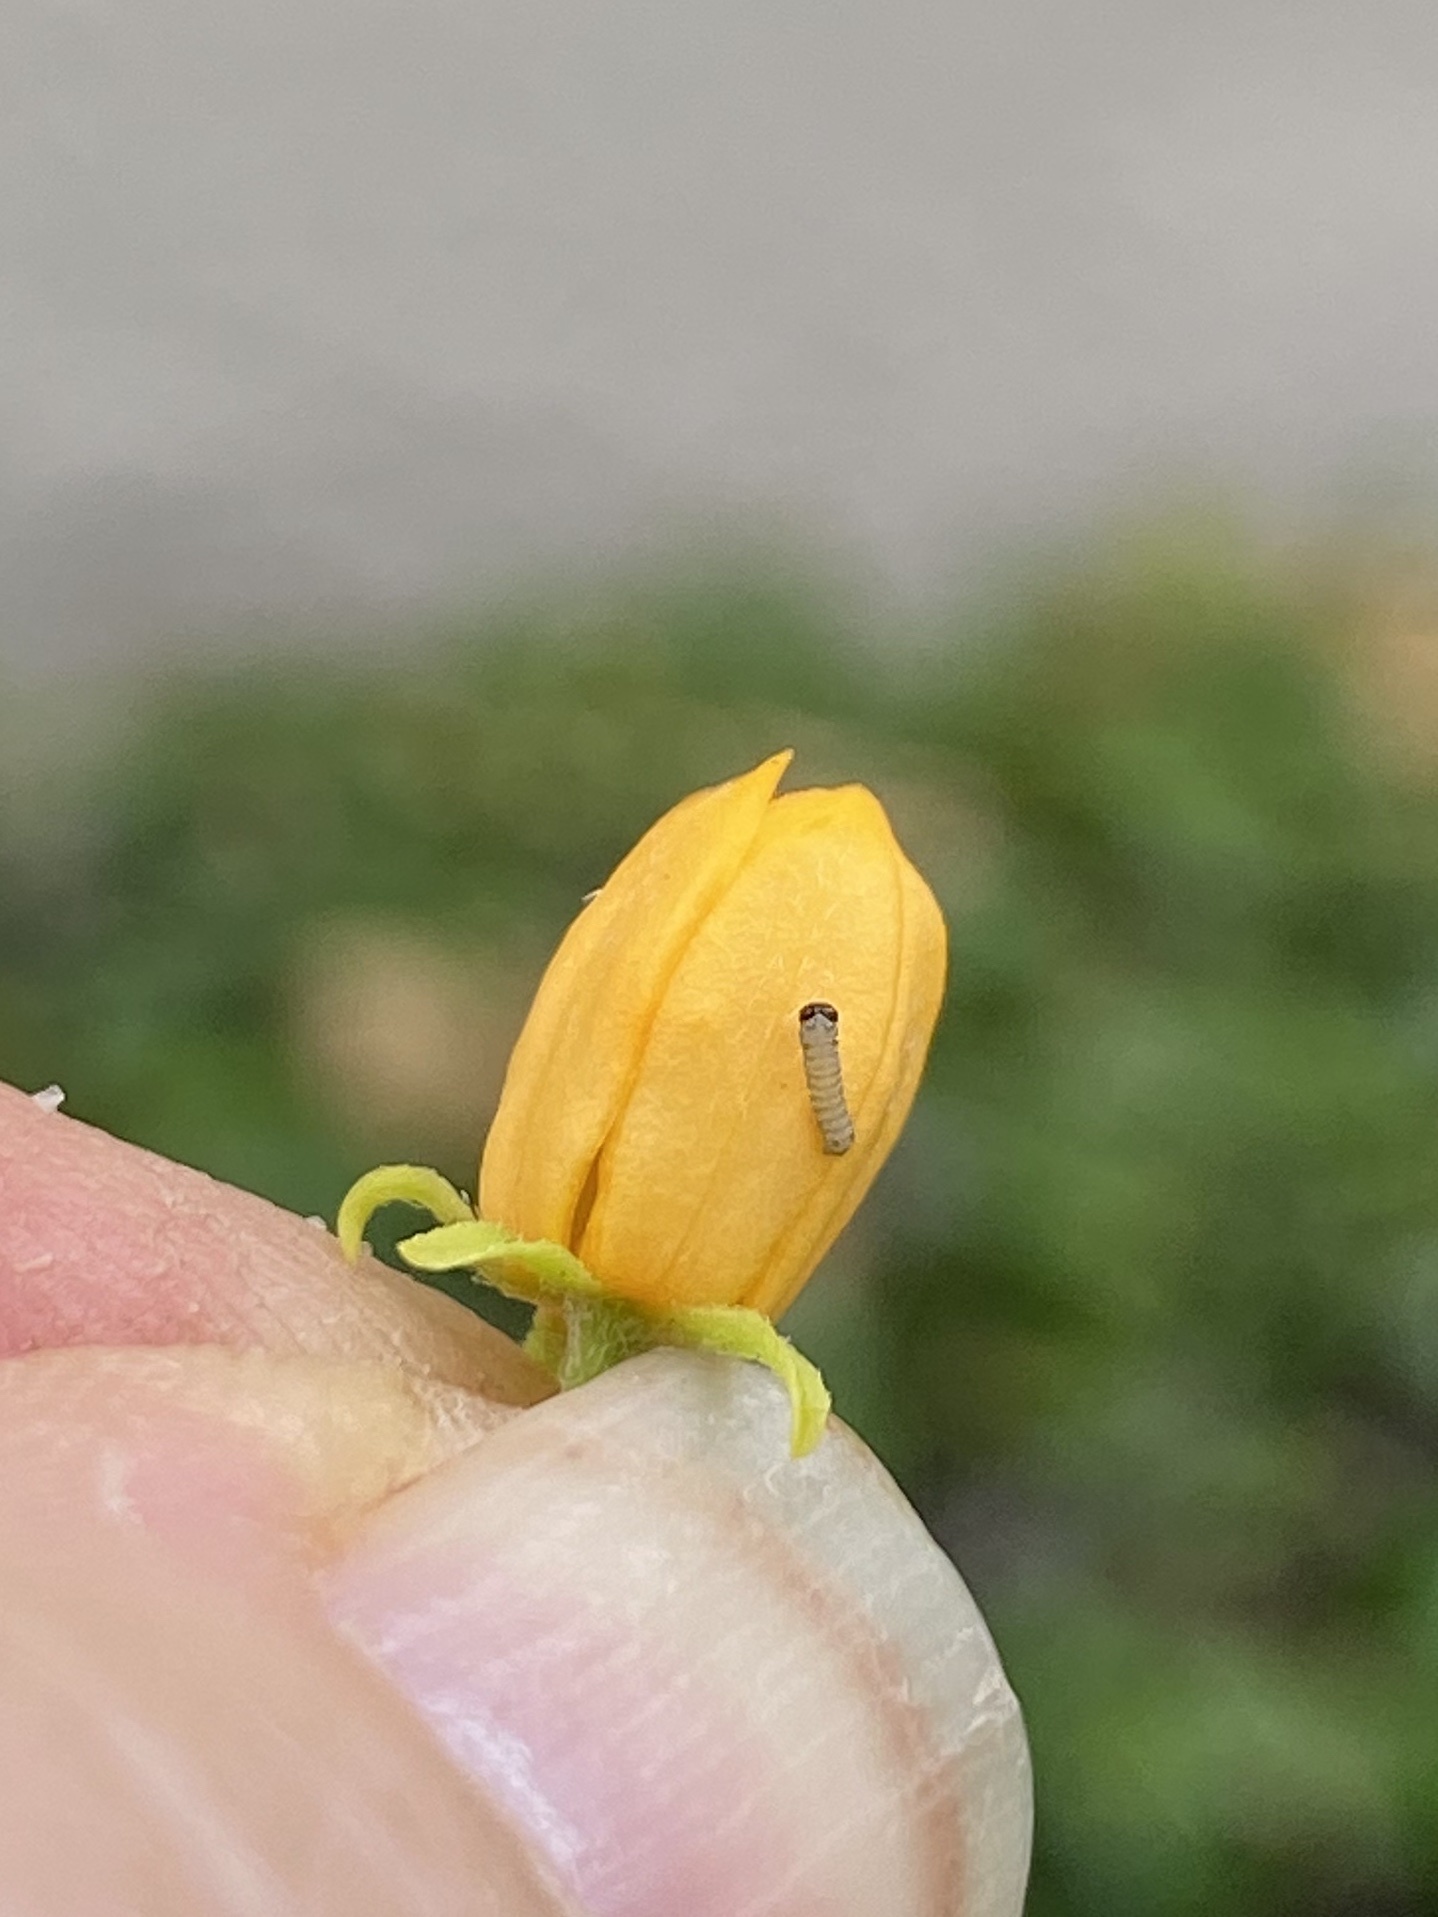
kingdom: Animalia
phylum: Arthropoda
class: Insecta
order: Lepidoptera
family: Nymphalidae
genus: Danaus
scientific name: Danaus plexippus
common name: Monarch
